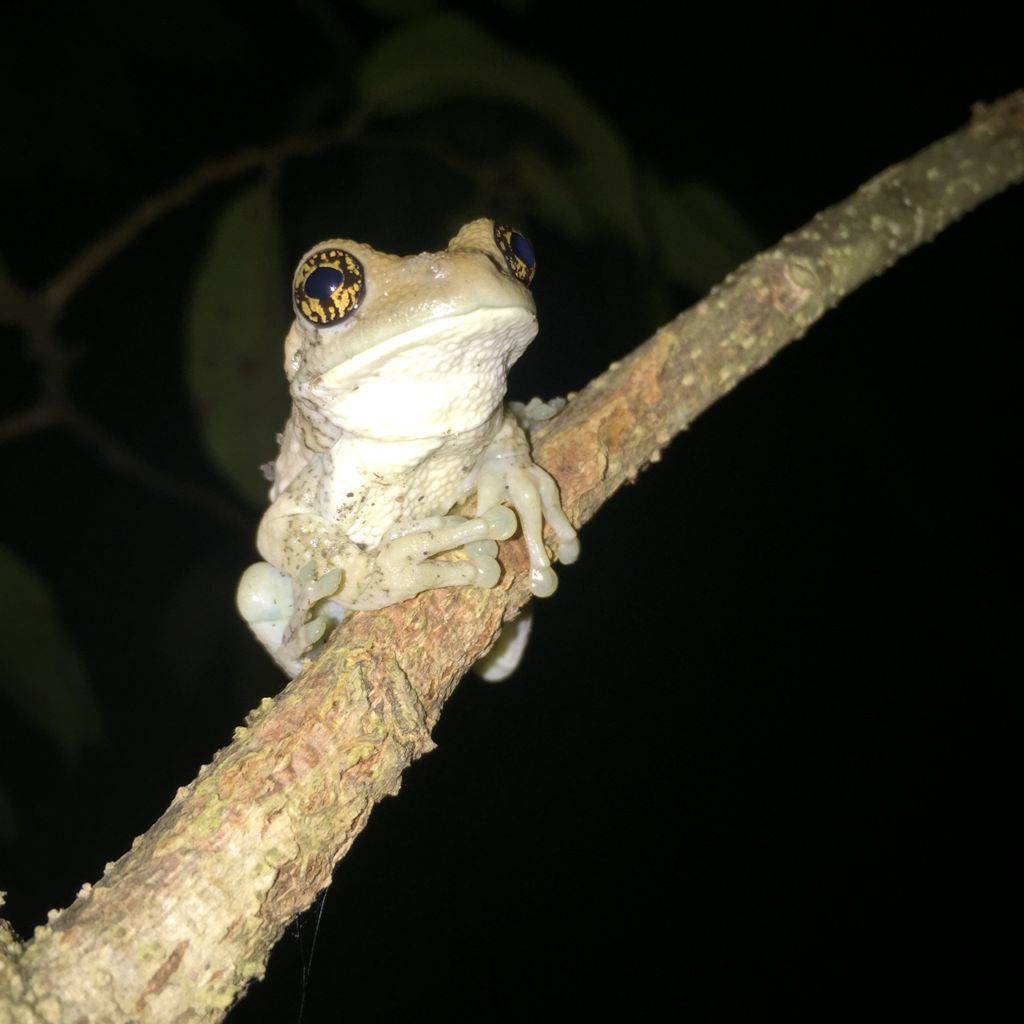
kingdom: Animalia
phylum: Chordata
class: Amphibia
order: Anura
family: Hylidae
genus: Trachycephalus
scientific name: Trachycephalus vermiculatus
